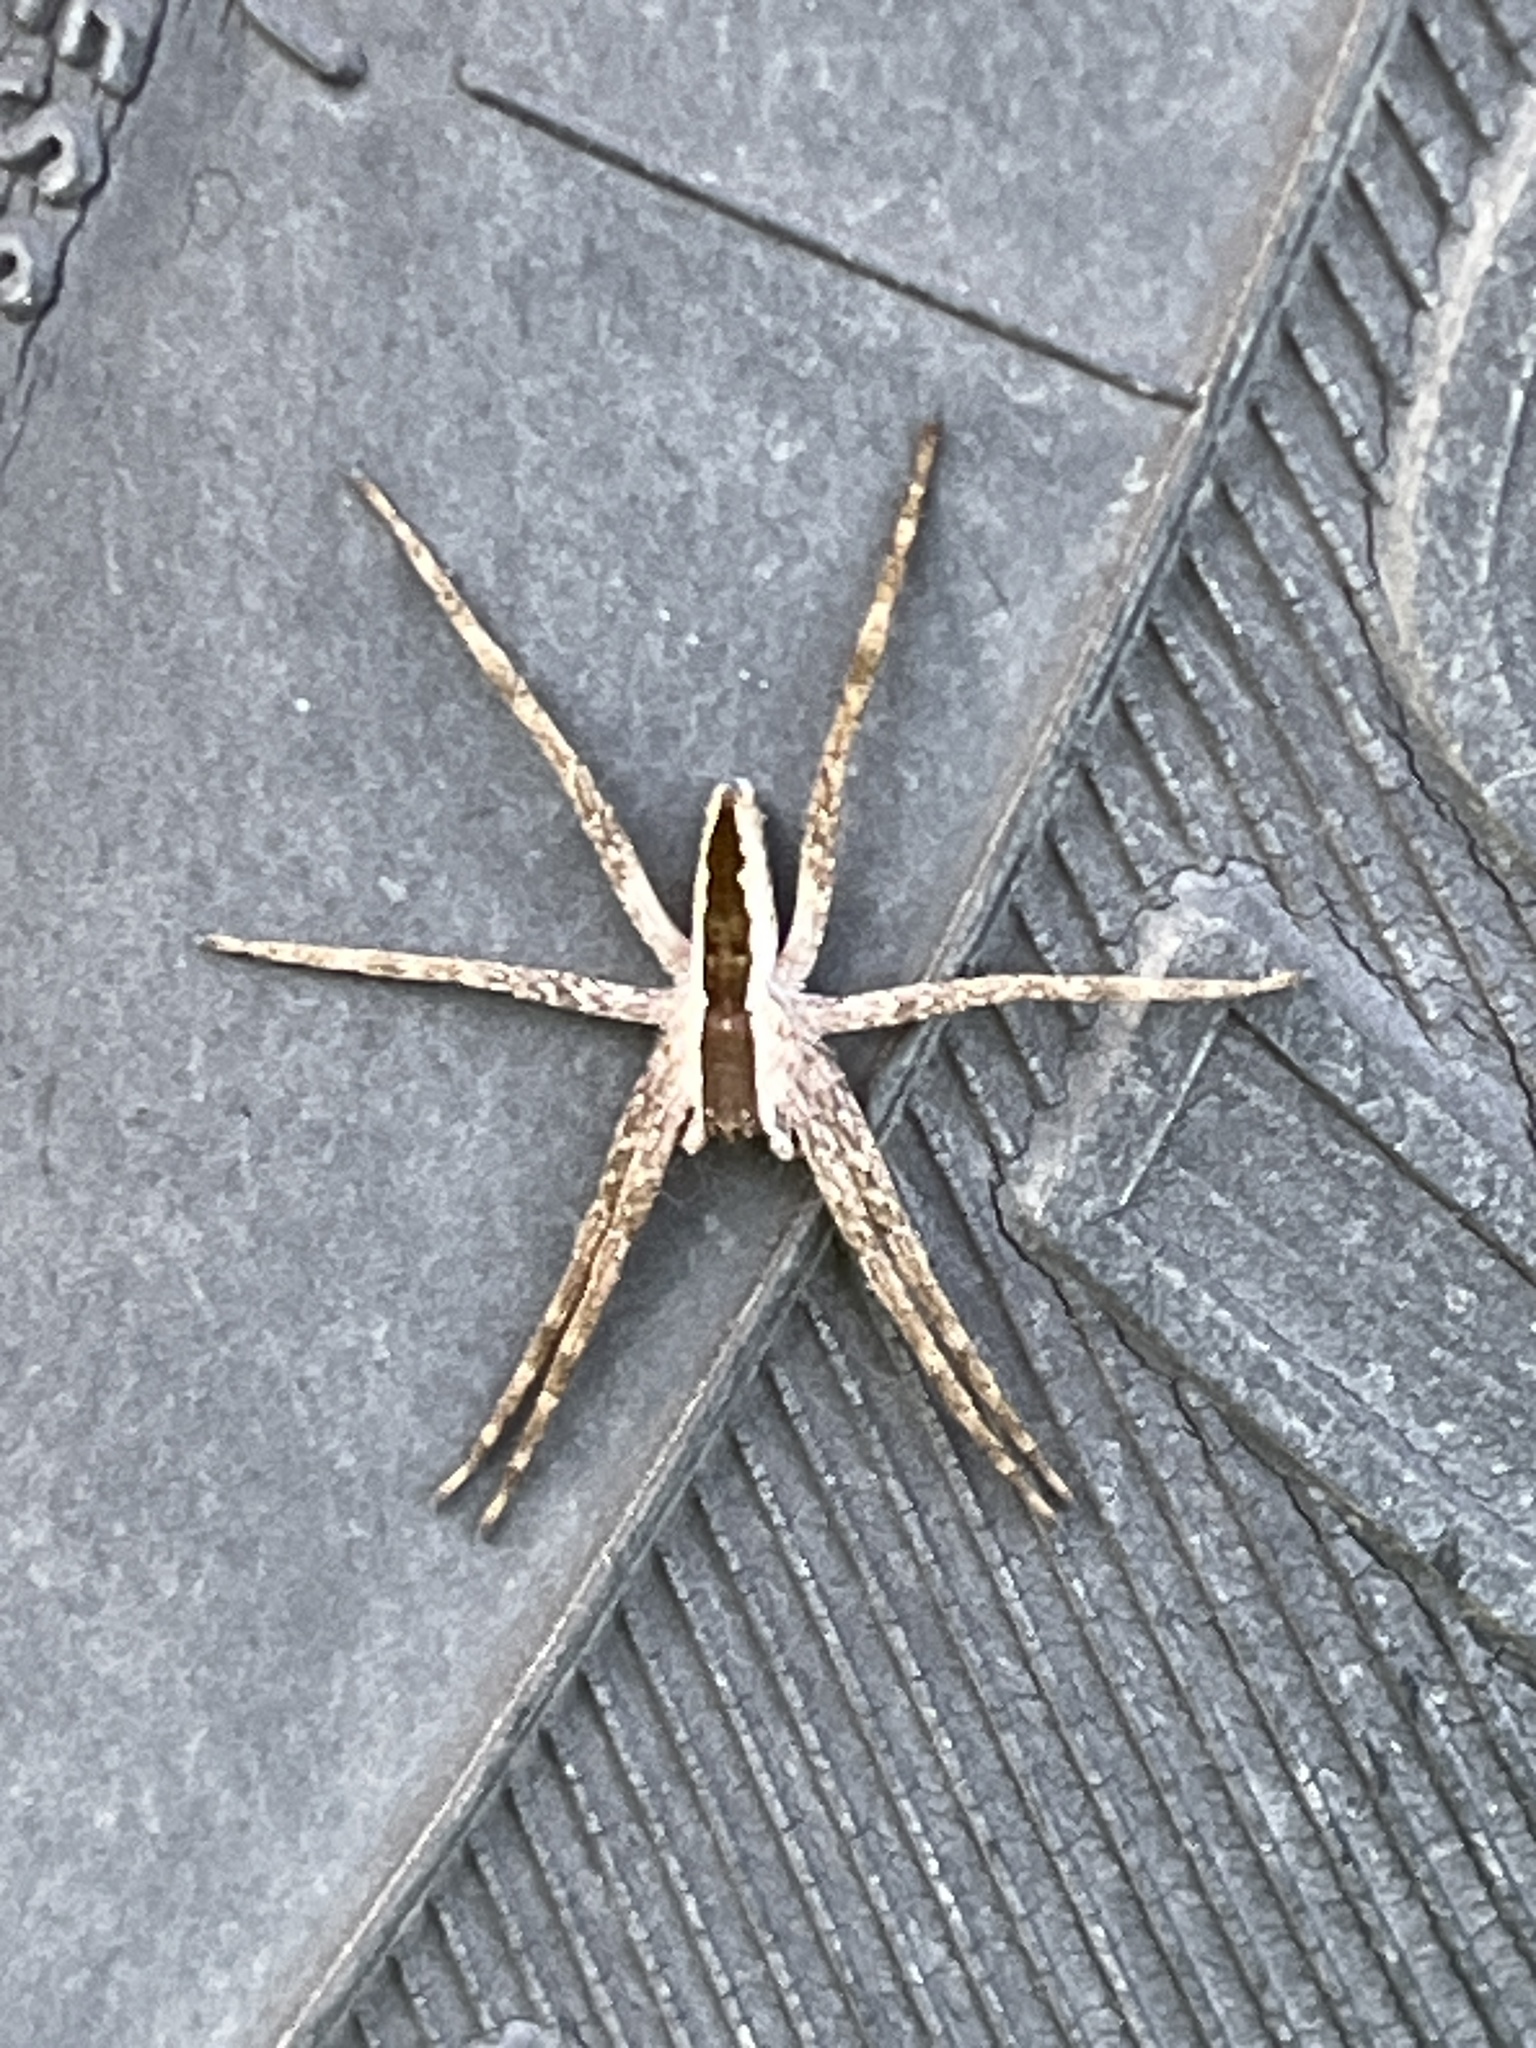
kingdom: Animalia
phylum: Arthropoda
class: Arachnida
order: Araneae
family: Pisauridae
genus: Pisaurina
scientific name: Pisaurina mira
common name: American nursery web spider
